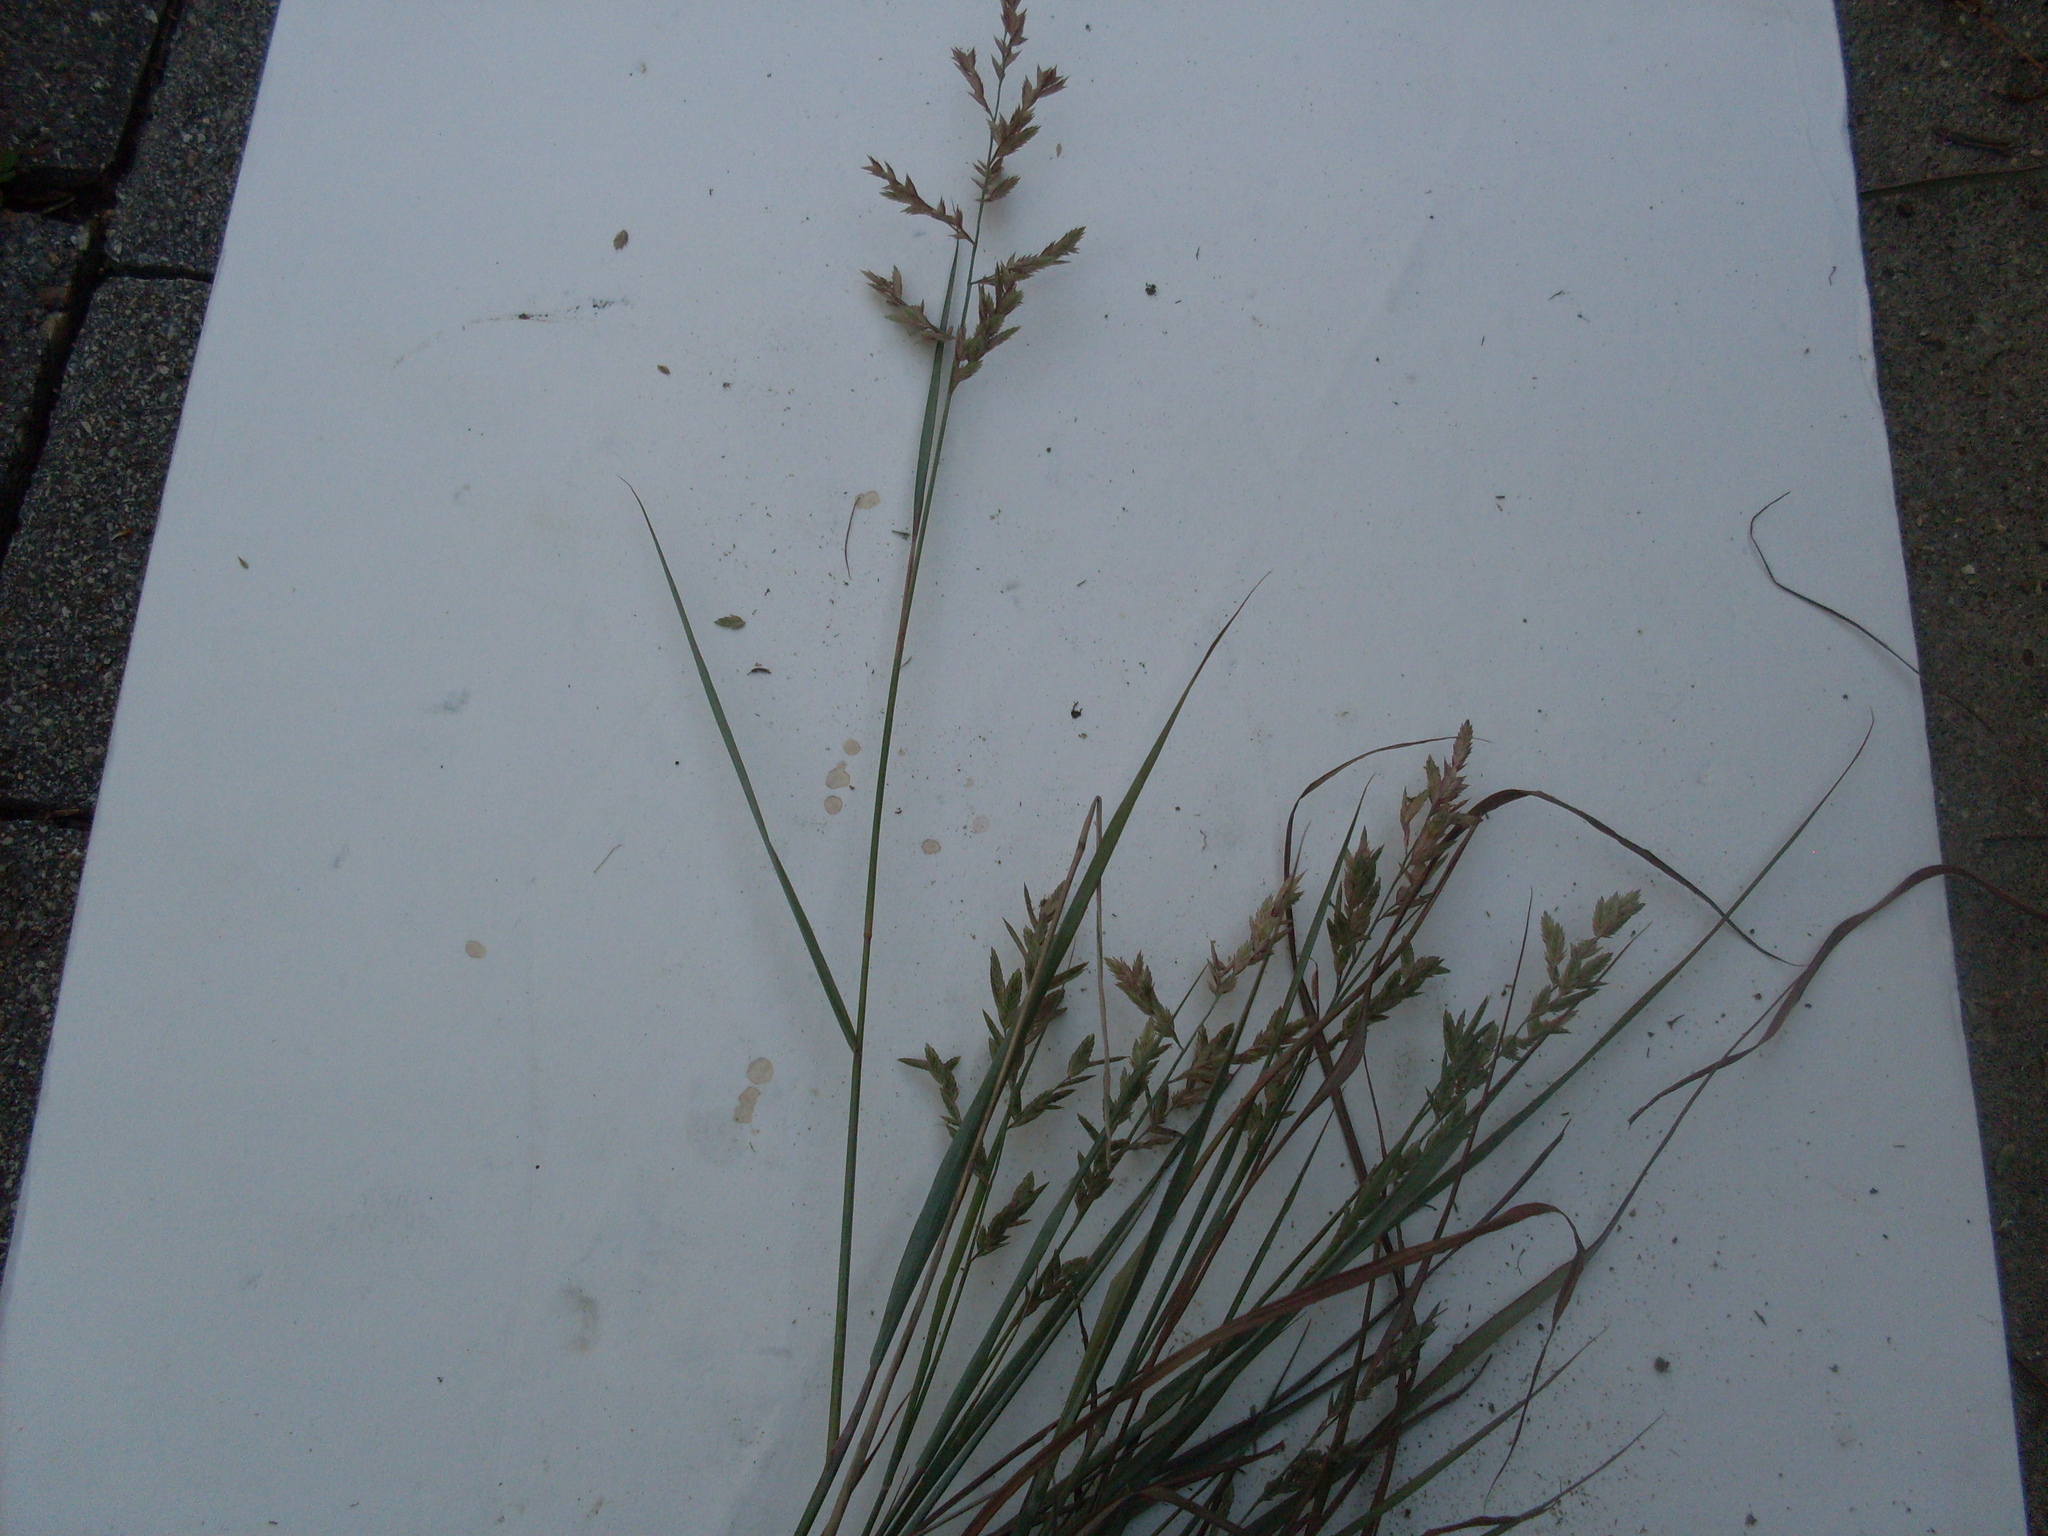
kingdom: Plantae
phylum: Tracheophyta
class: Liliopsida
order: Poales
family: Poaceae
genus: Eragrostis
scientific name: Eragrostis secundiflora
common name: Red love grass
